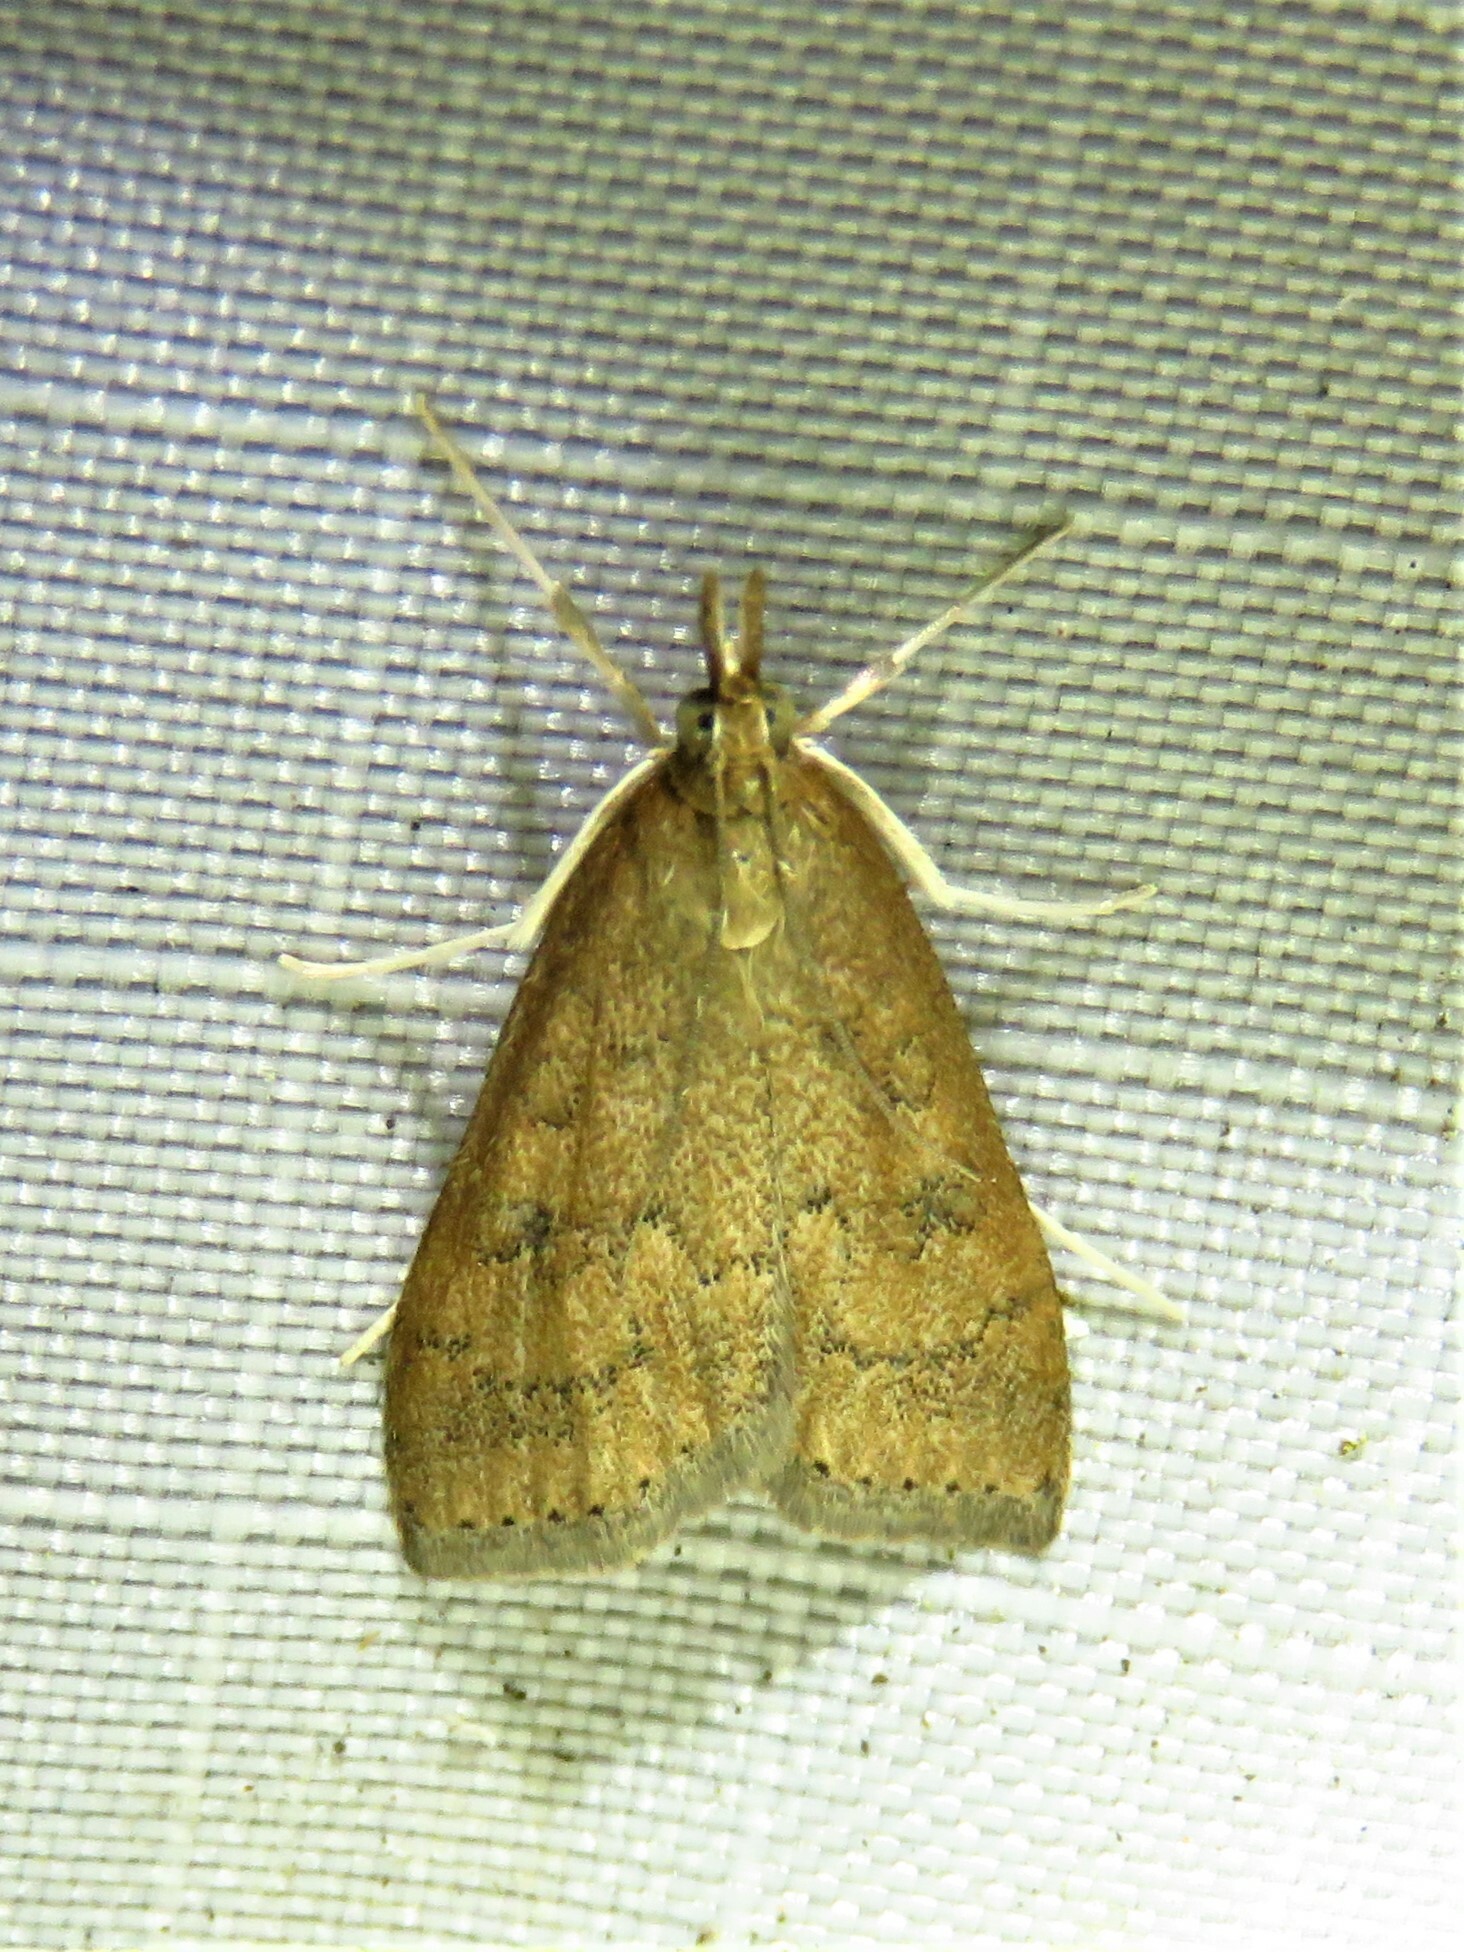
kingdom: Animalia
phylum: Arthropoda
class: Insecta
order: Lepidoptera
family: Crambidae
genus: Udea
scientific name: Udea rubigalis
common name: Celery leaftier moth
